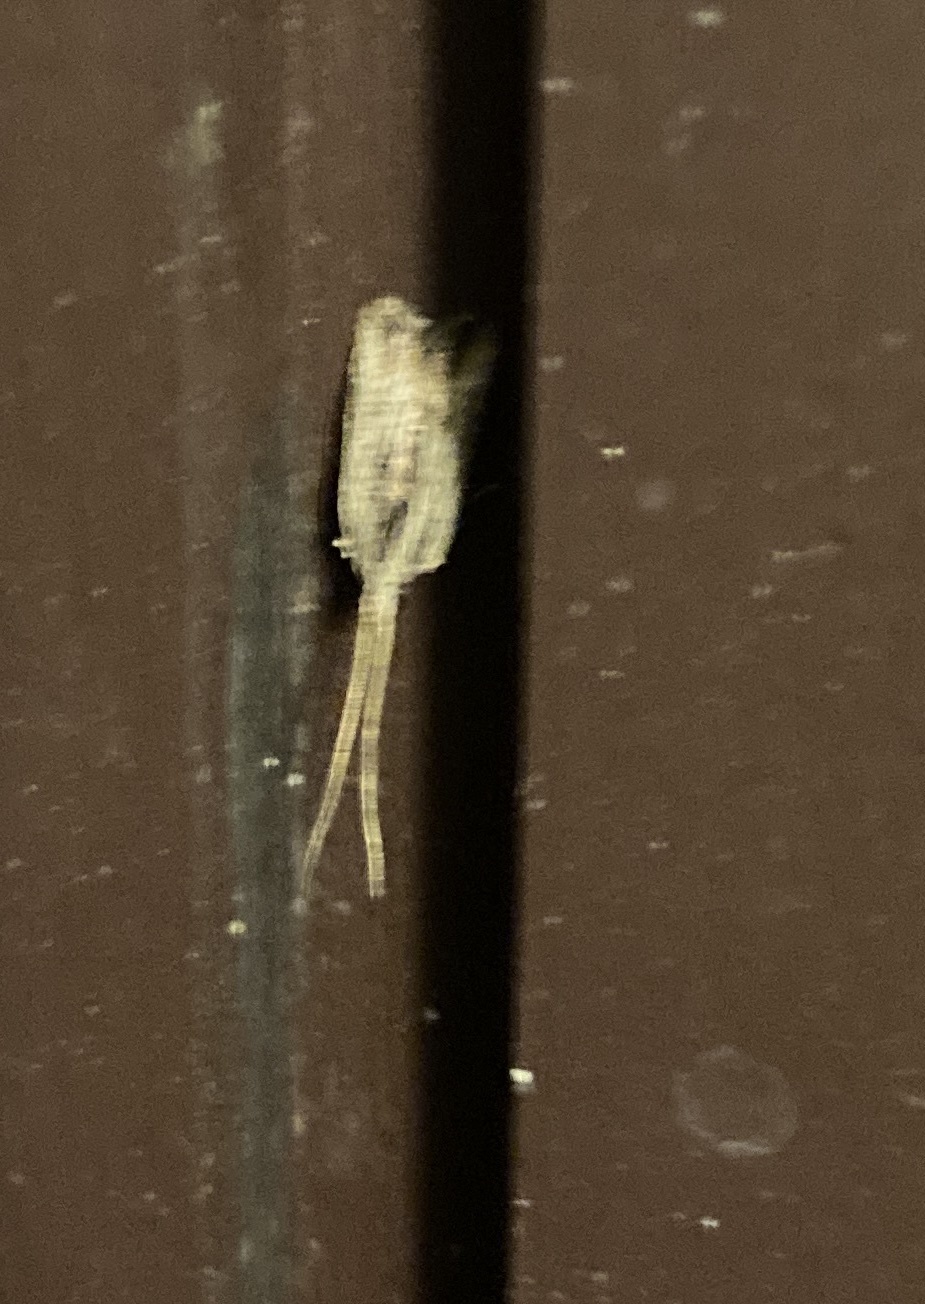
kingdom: Animalia
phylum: Arthropoda
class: Insecta
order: Lepidoptera
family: Lecithoceridae
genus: Sarisophora
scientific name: Sarisophora leucoscia
